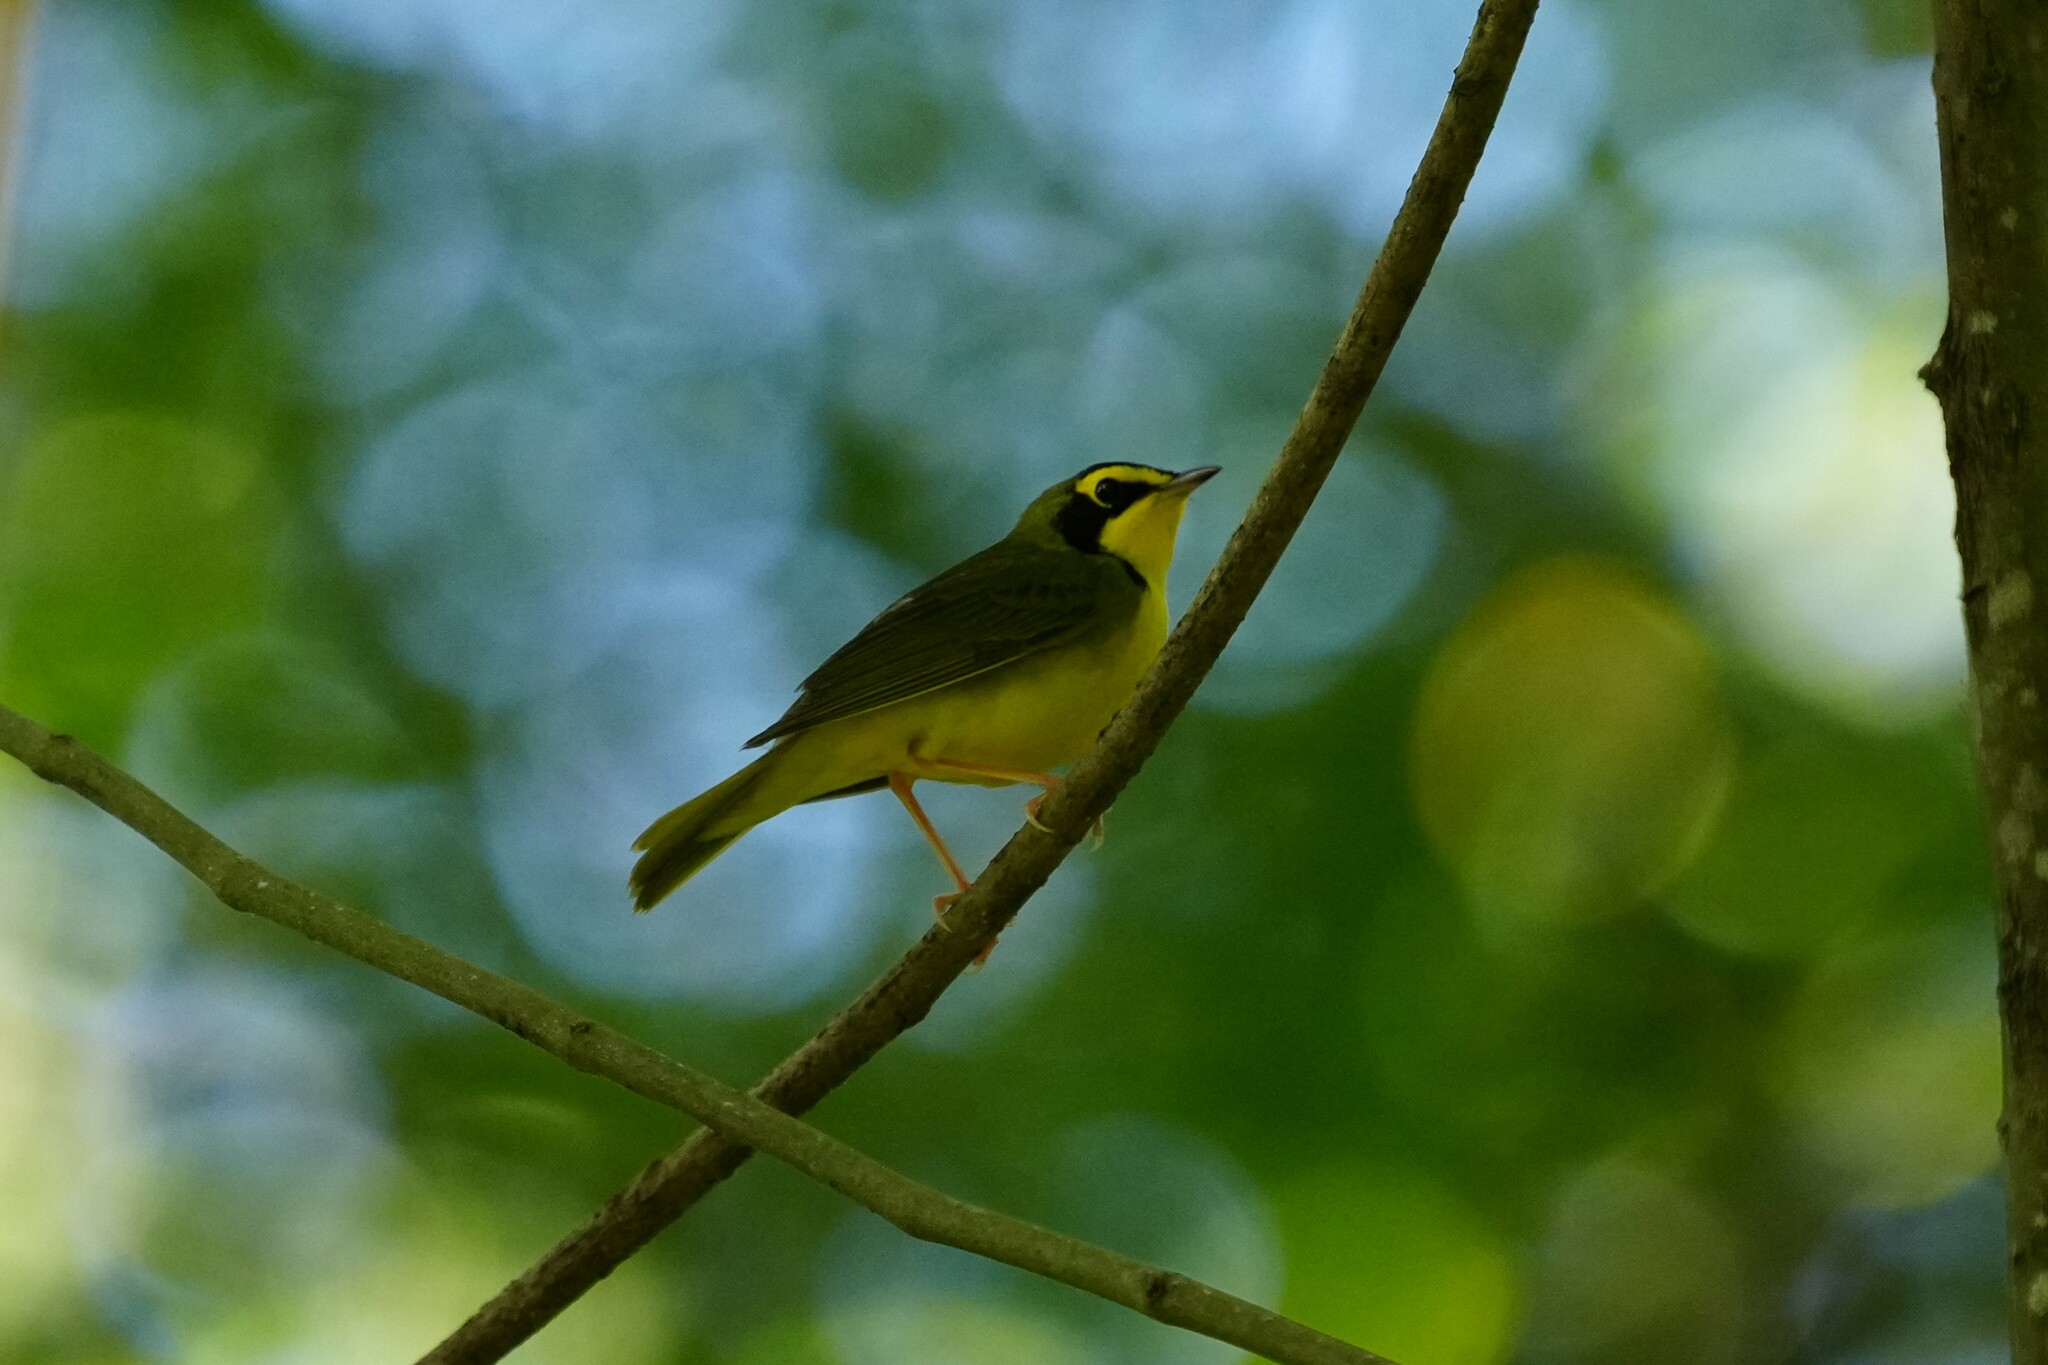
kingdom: Animalia
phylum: Chordata
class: Aves
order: Passeriformes
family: Parulidae
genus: Geothlypis
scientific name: Geothlypis formosa
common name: Kentucky warbler
